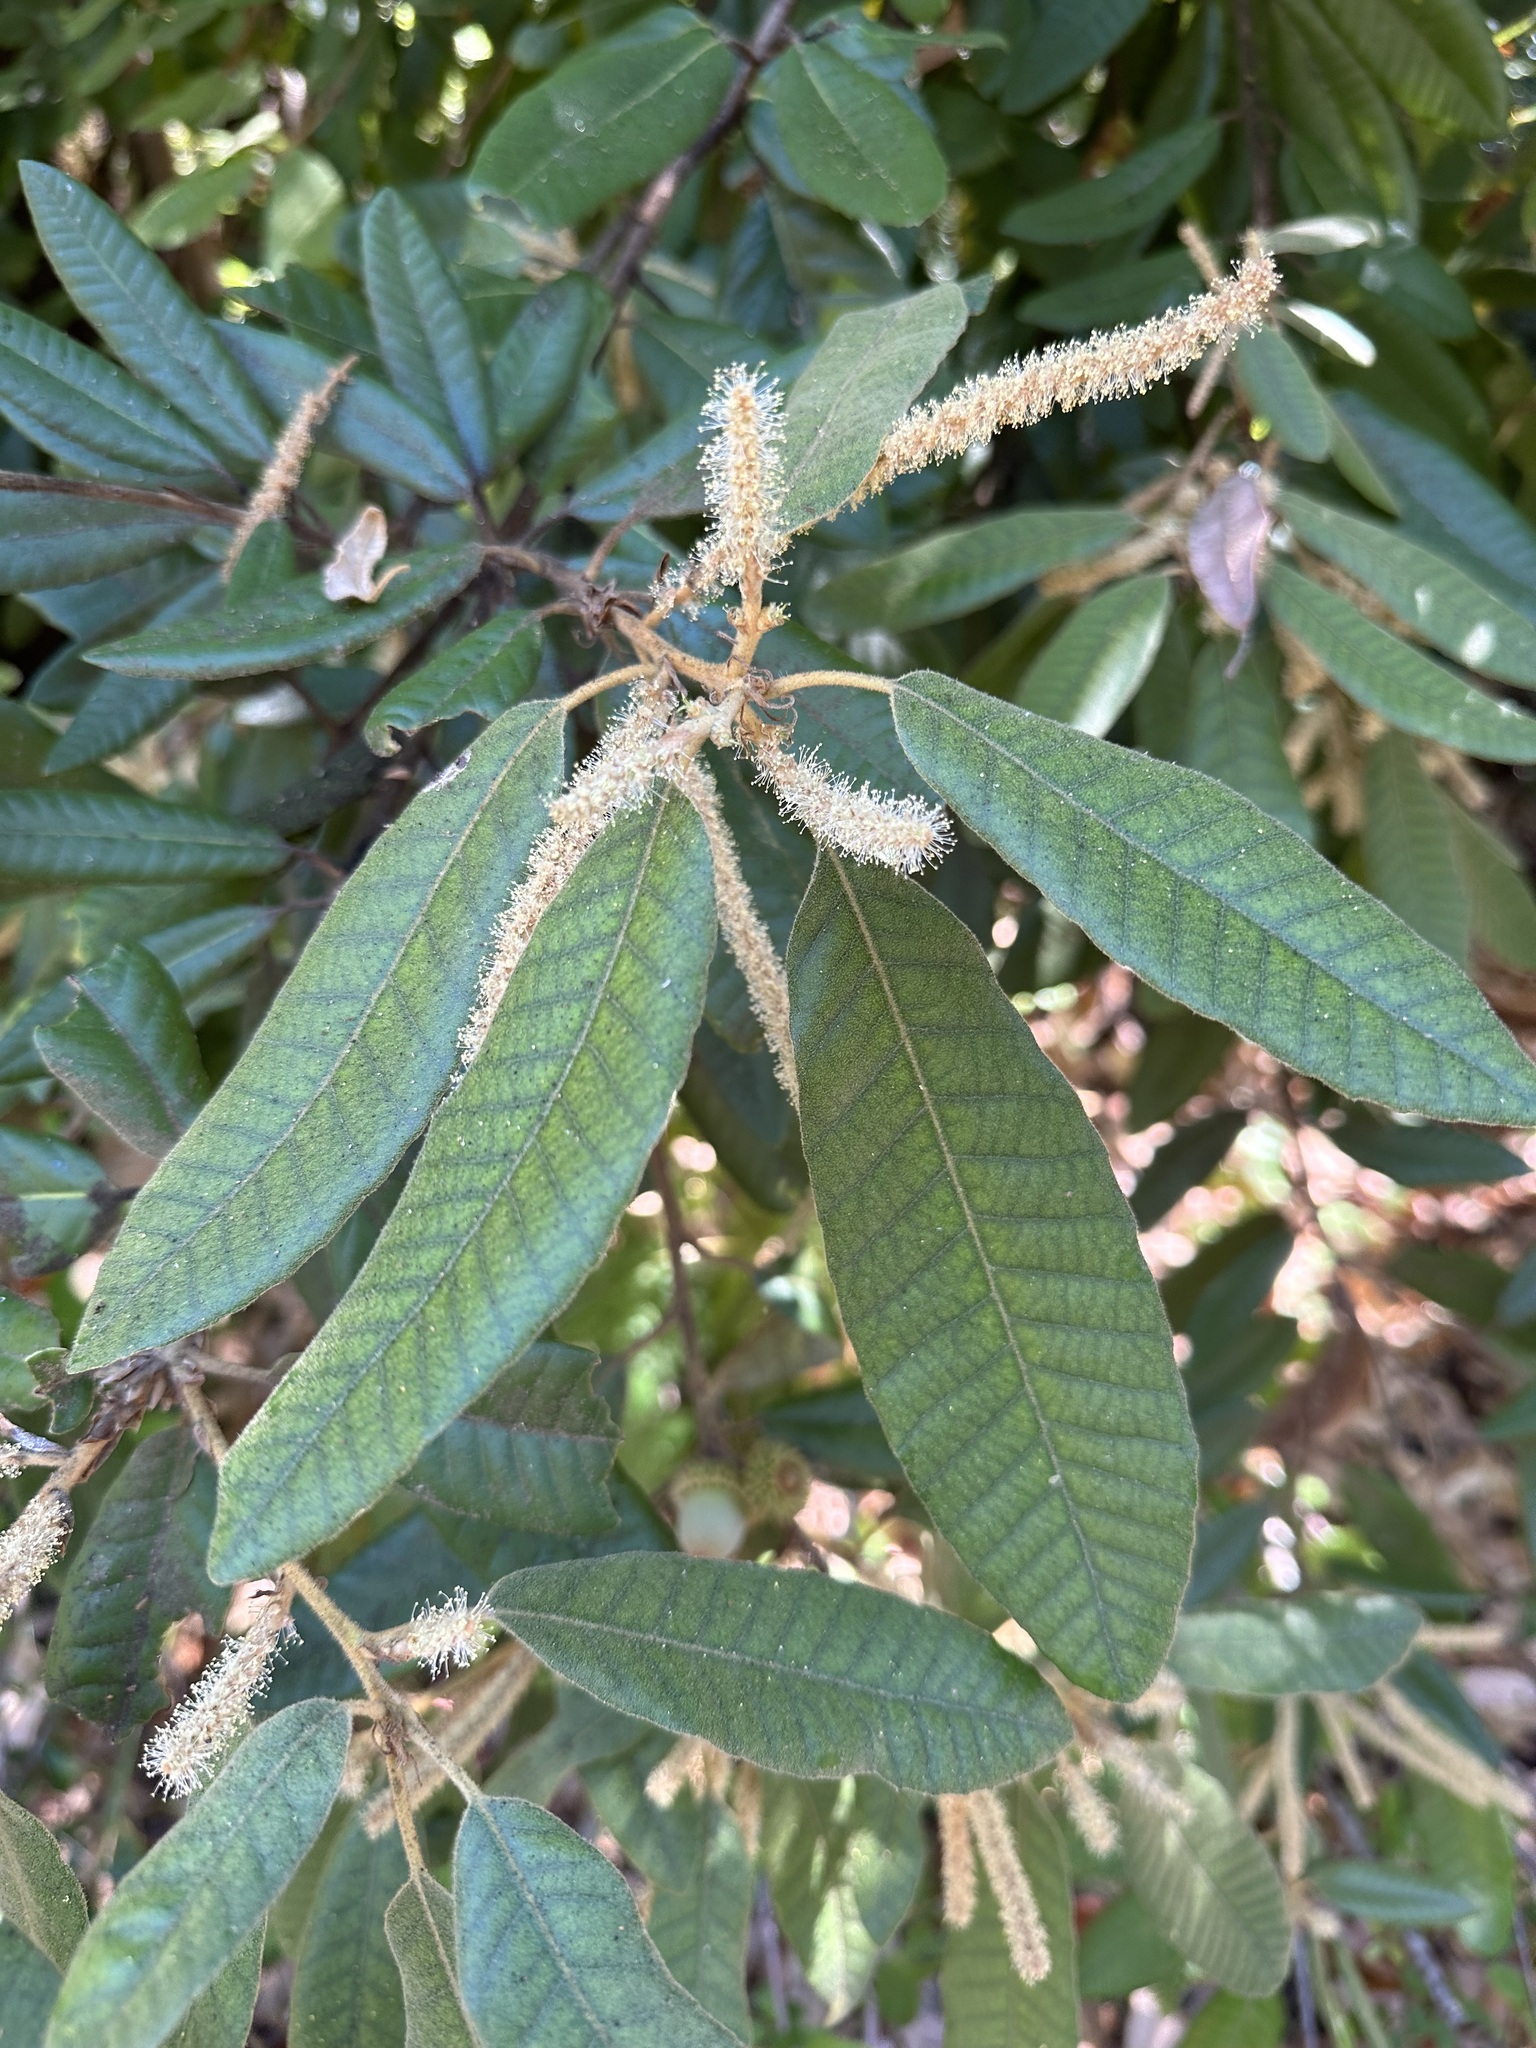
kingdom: Plantae
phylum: Tracheophyta
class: Magnoliopsida
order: Fagales
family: Fagaceae
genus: Notholithocarpus
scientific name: Notholithocarpus densiflorus
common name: Tan bark oak
